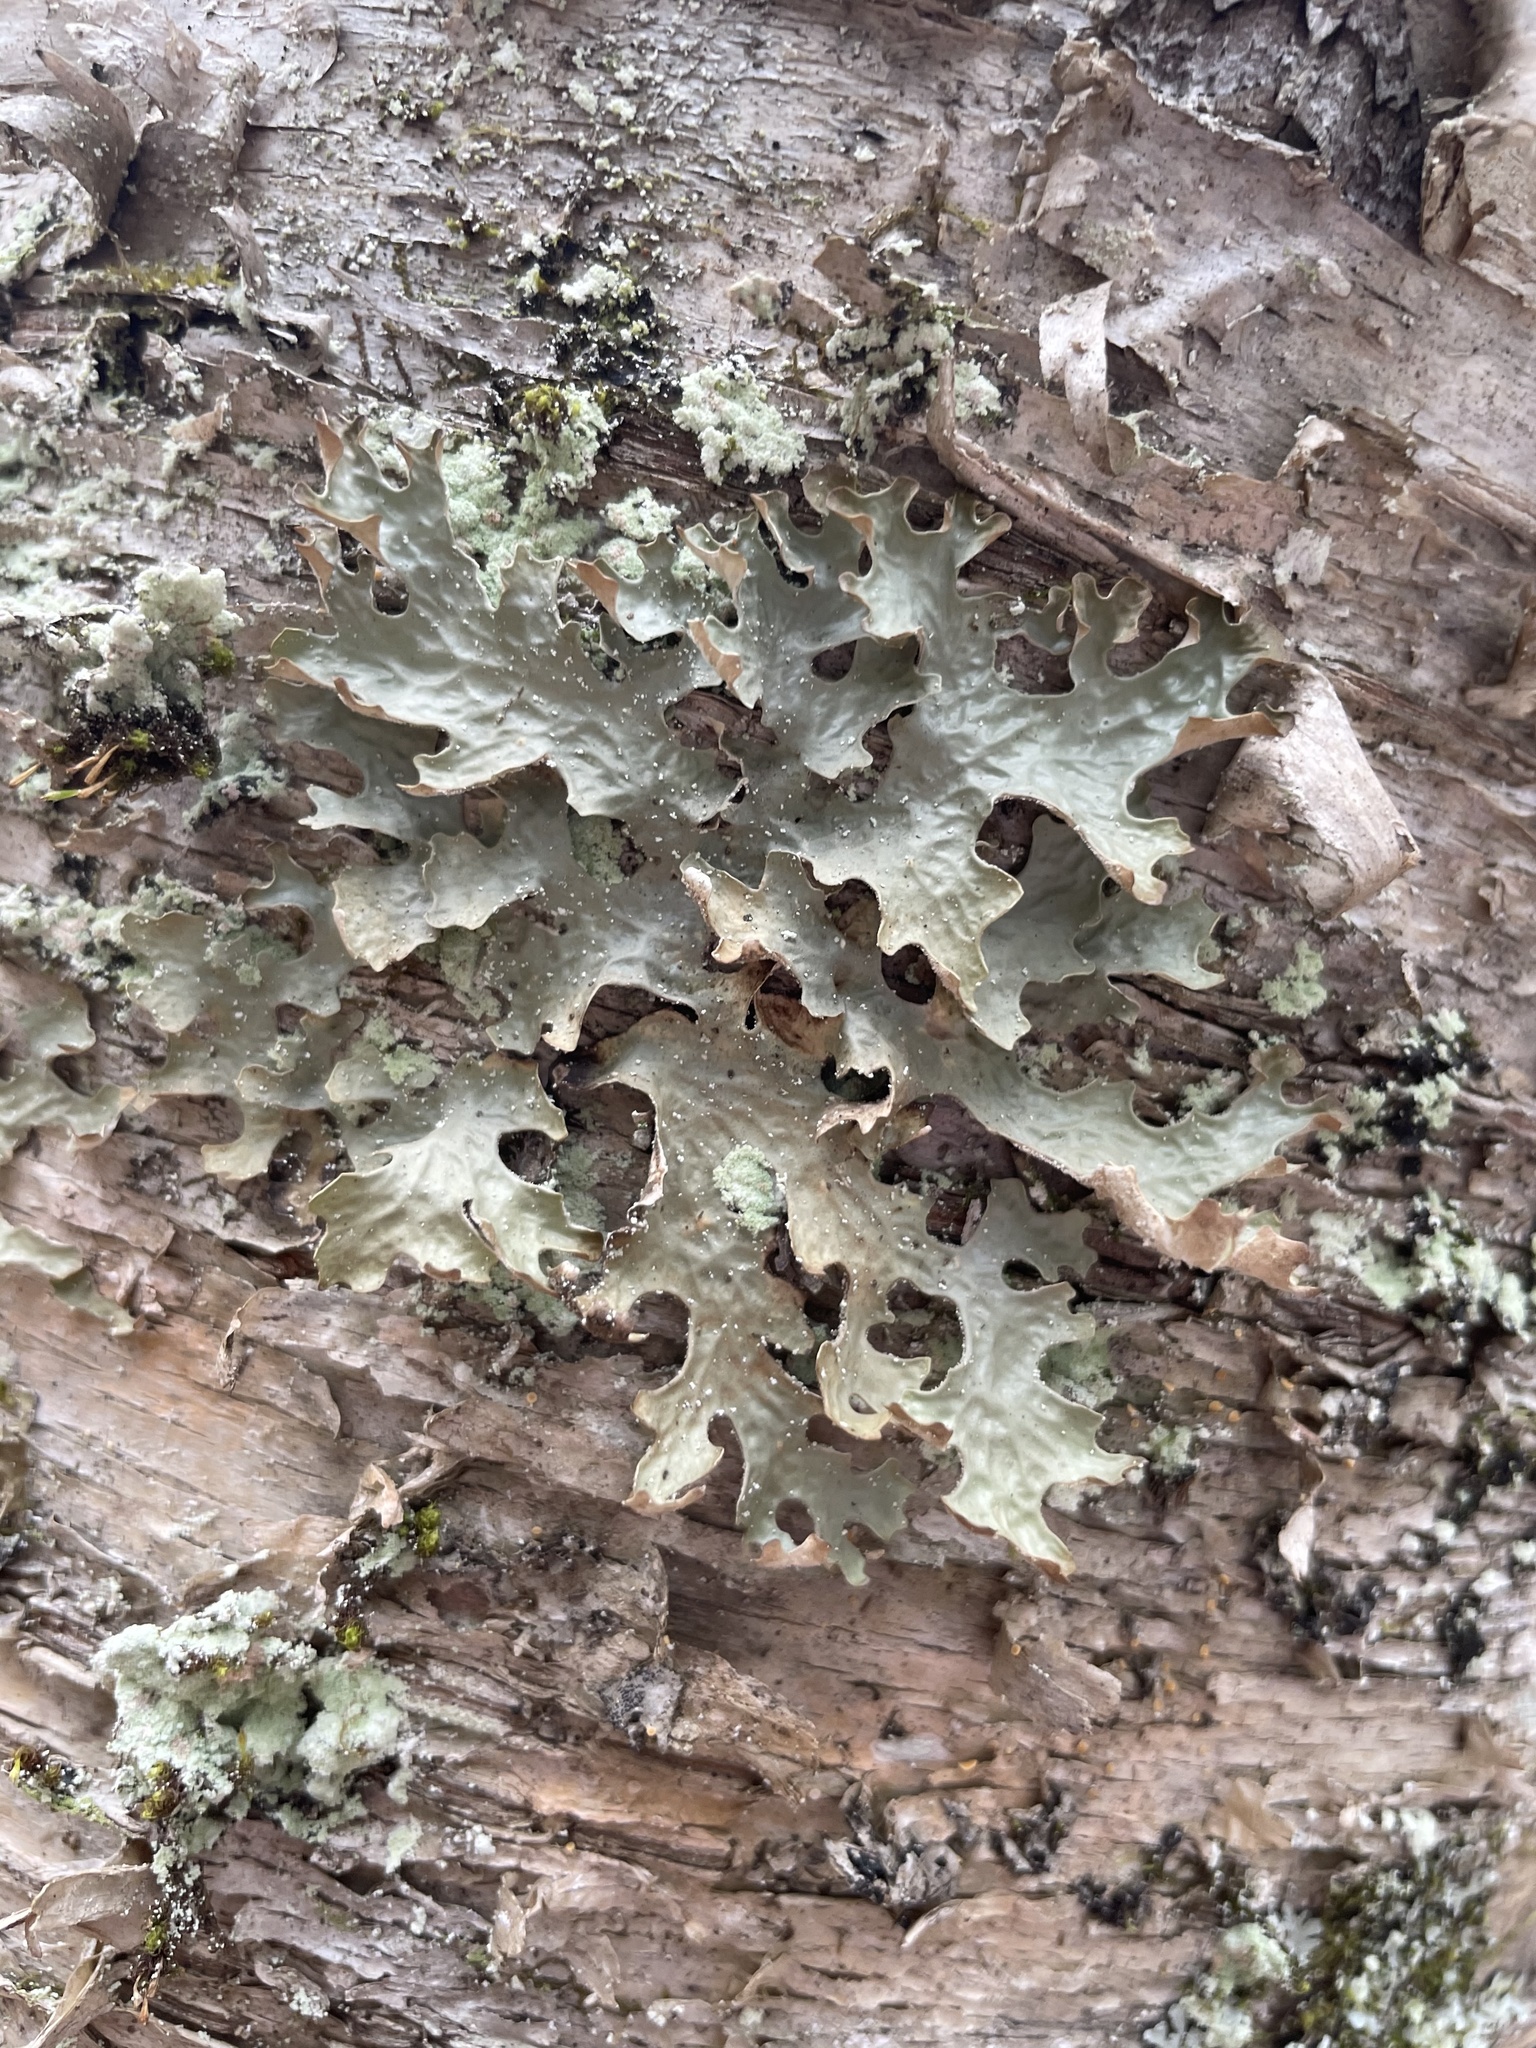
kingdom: Fungi
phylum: Ascomycota
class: Lecanoromycetes
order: Peltigerales
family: Lobariaceae
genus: Lobaria
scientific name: Lobaria pulmonaria
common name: Lungwort
